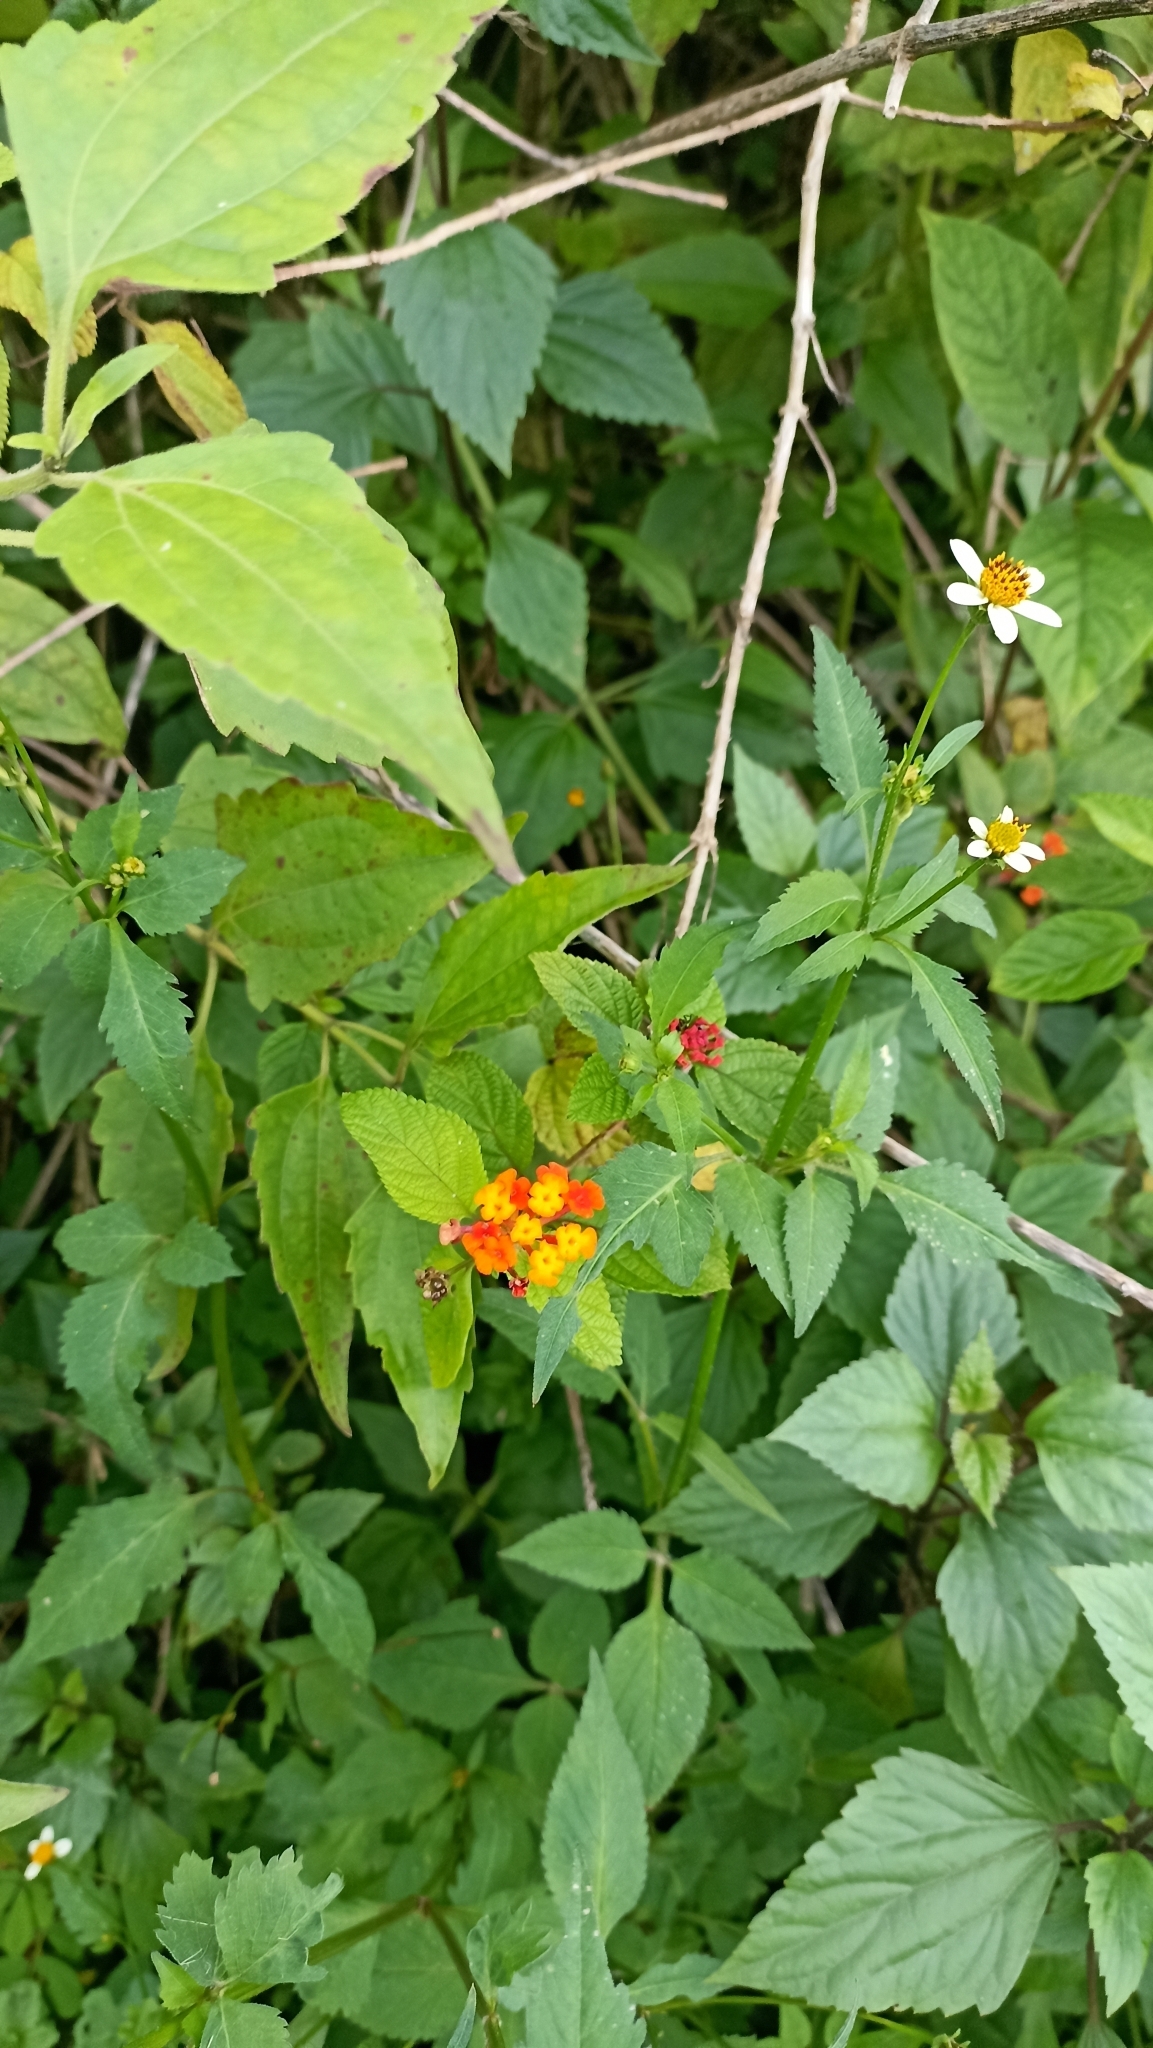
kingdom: Plantae
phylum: Tracheophyta
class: Magnoliopsida
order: Lamiales
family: Verbenaceae
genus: Lantana
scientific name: Lantana camara
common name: Lantana
